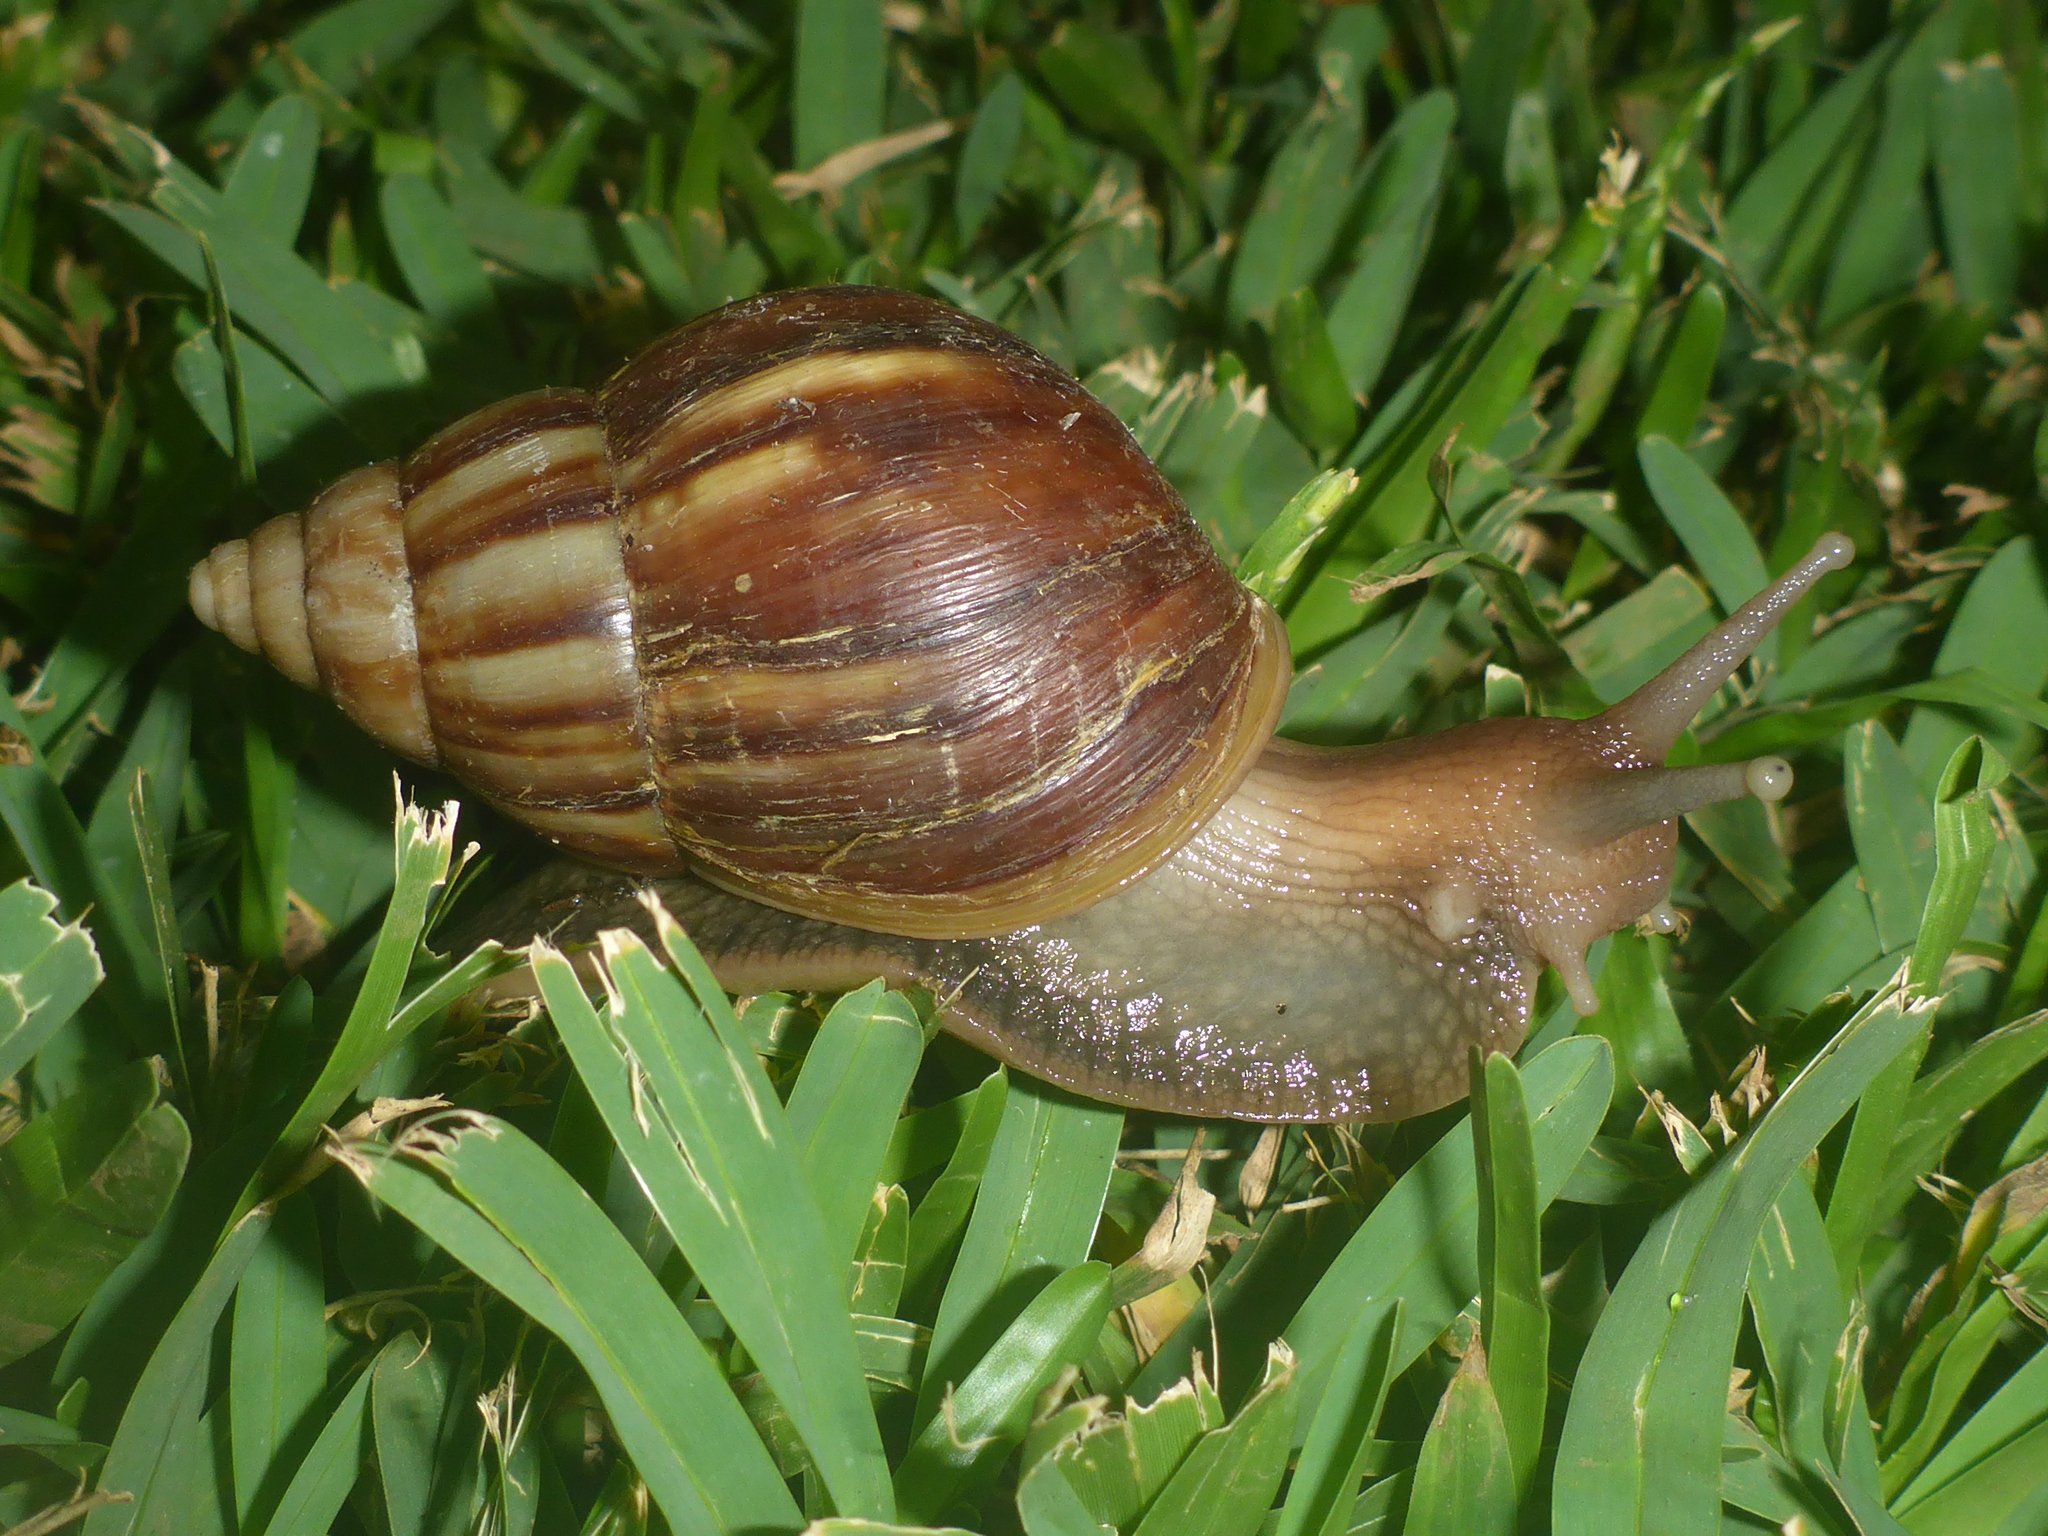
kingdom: Animalia
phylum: Mollusca
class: Gastropoda
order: Stylommatophora
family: Achatinidae
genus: Lissachatina
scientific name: Lissachatina fulica
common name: Giant african snail
